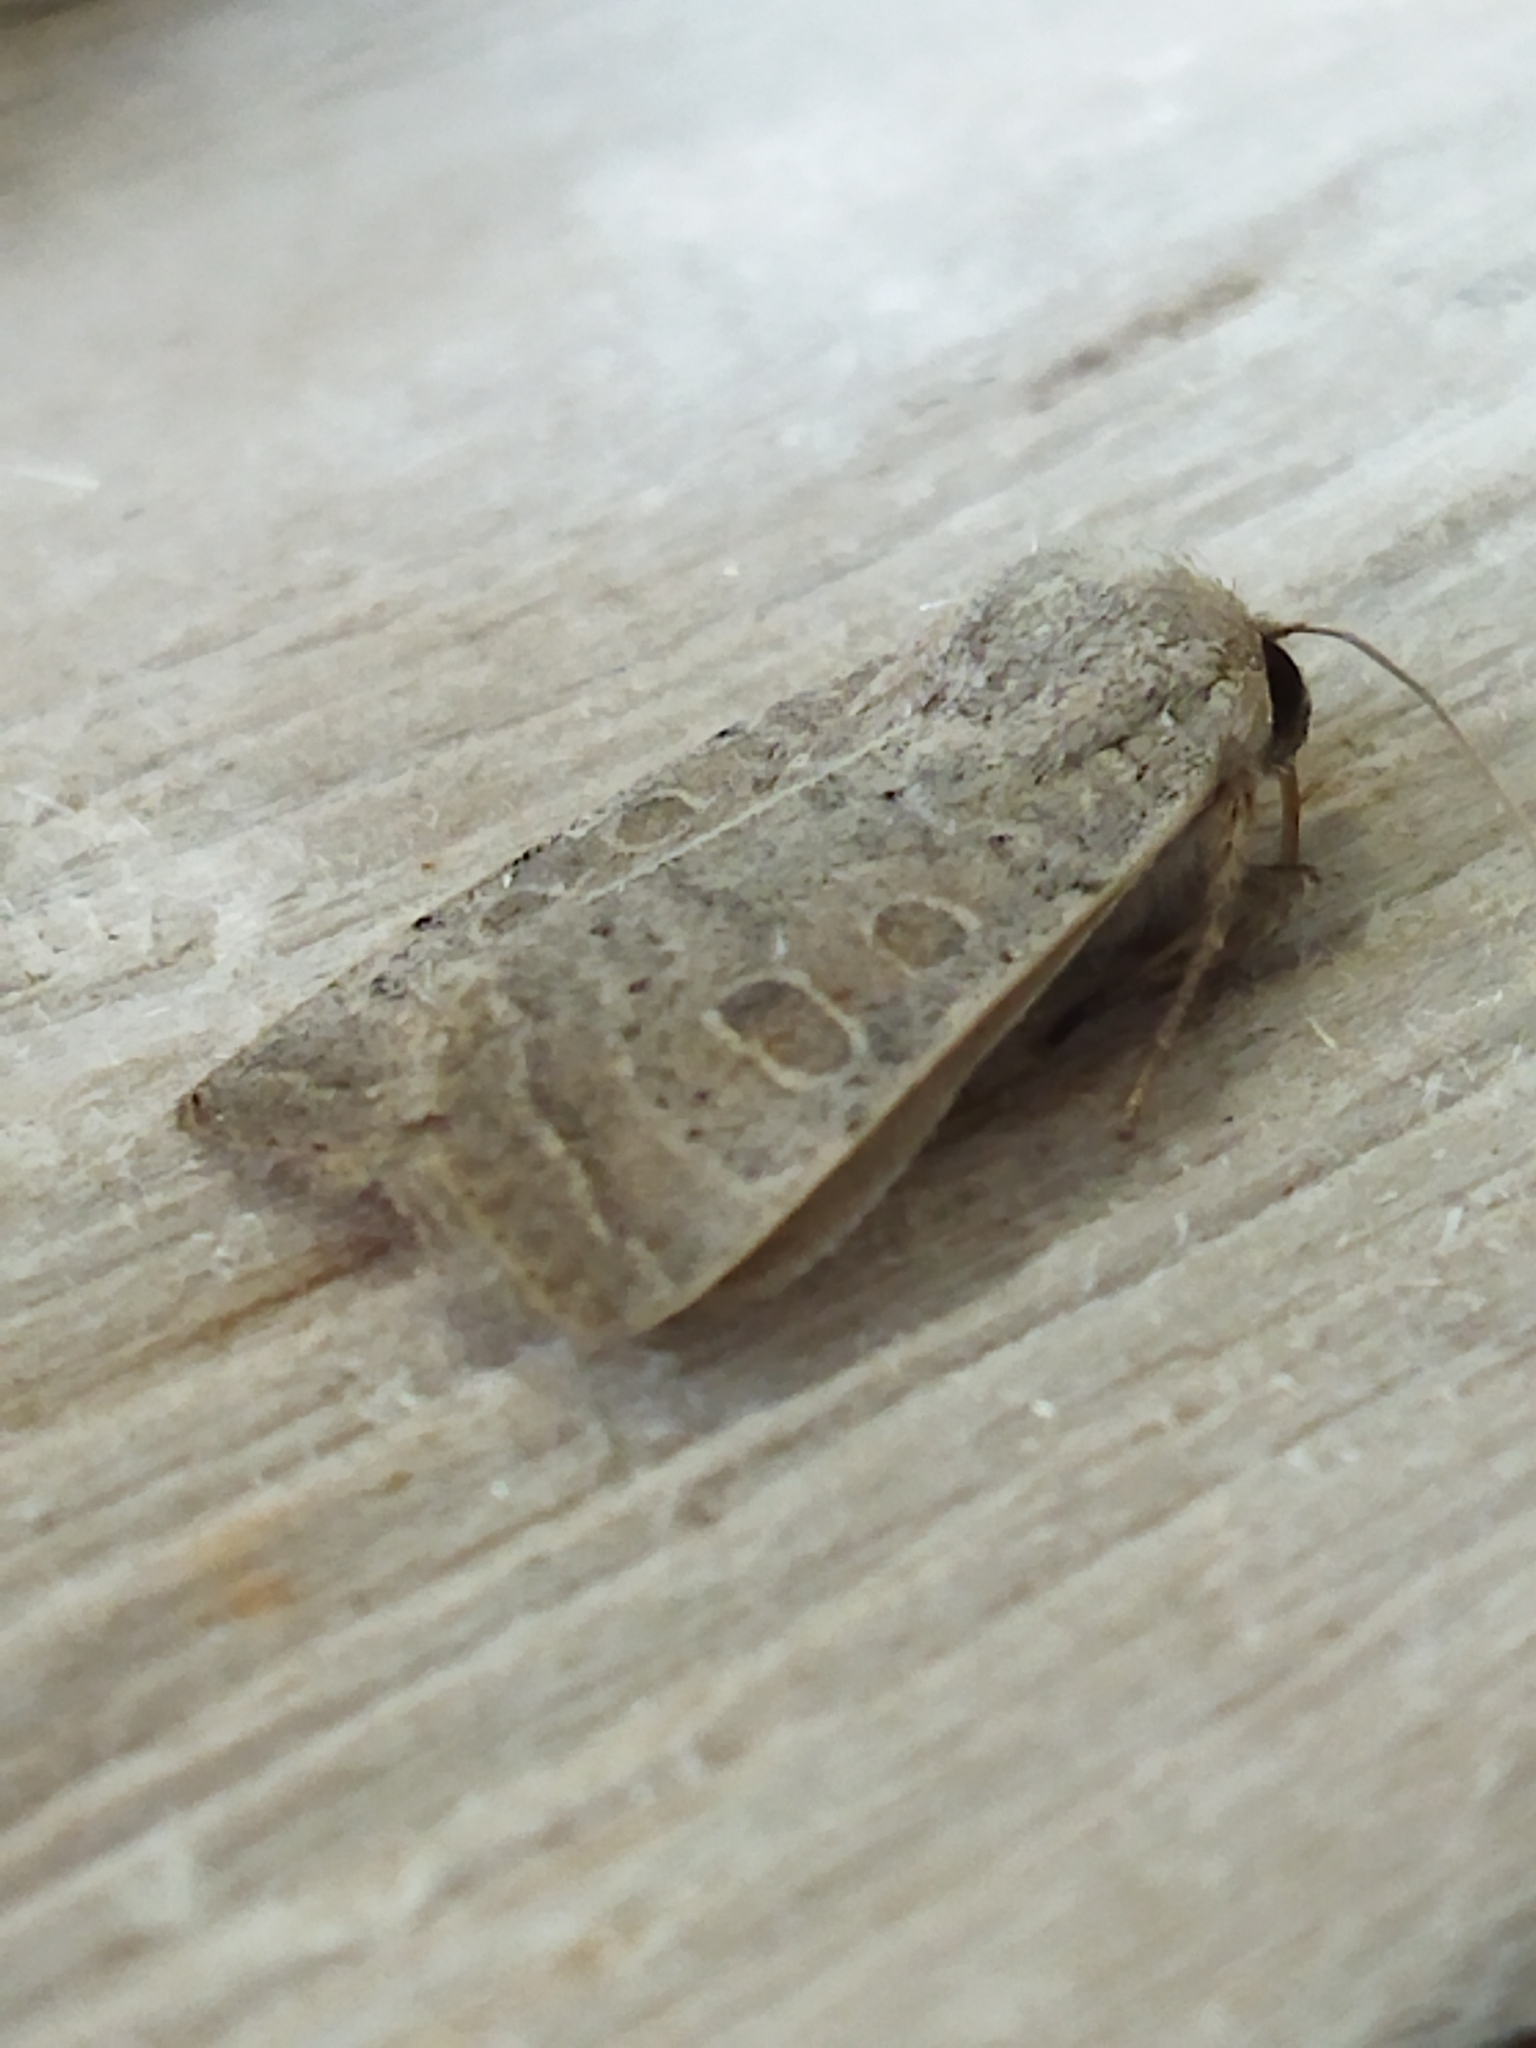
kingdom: Animalia
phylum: Arthropoda
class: Insecta
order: Lepidoptera
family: Noctuidae
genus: Hoplodrina
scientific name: Hoplodrina ambigua
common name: Vine's rustic
